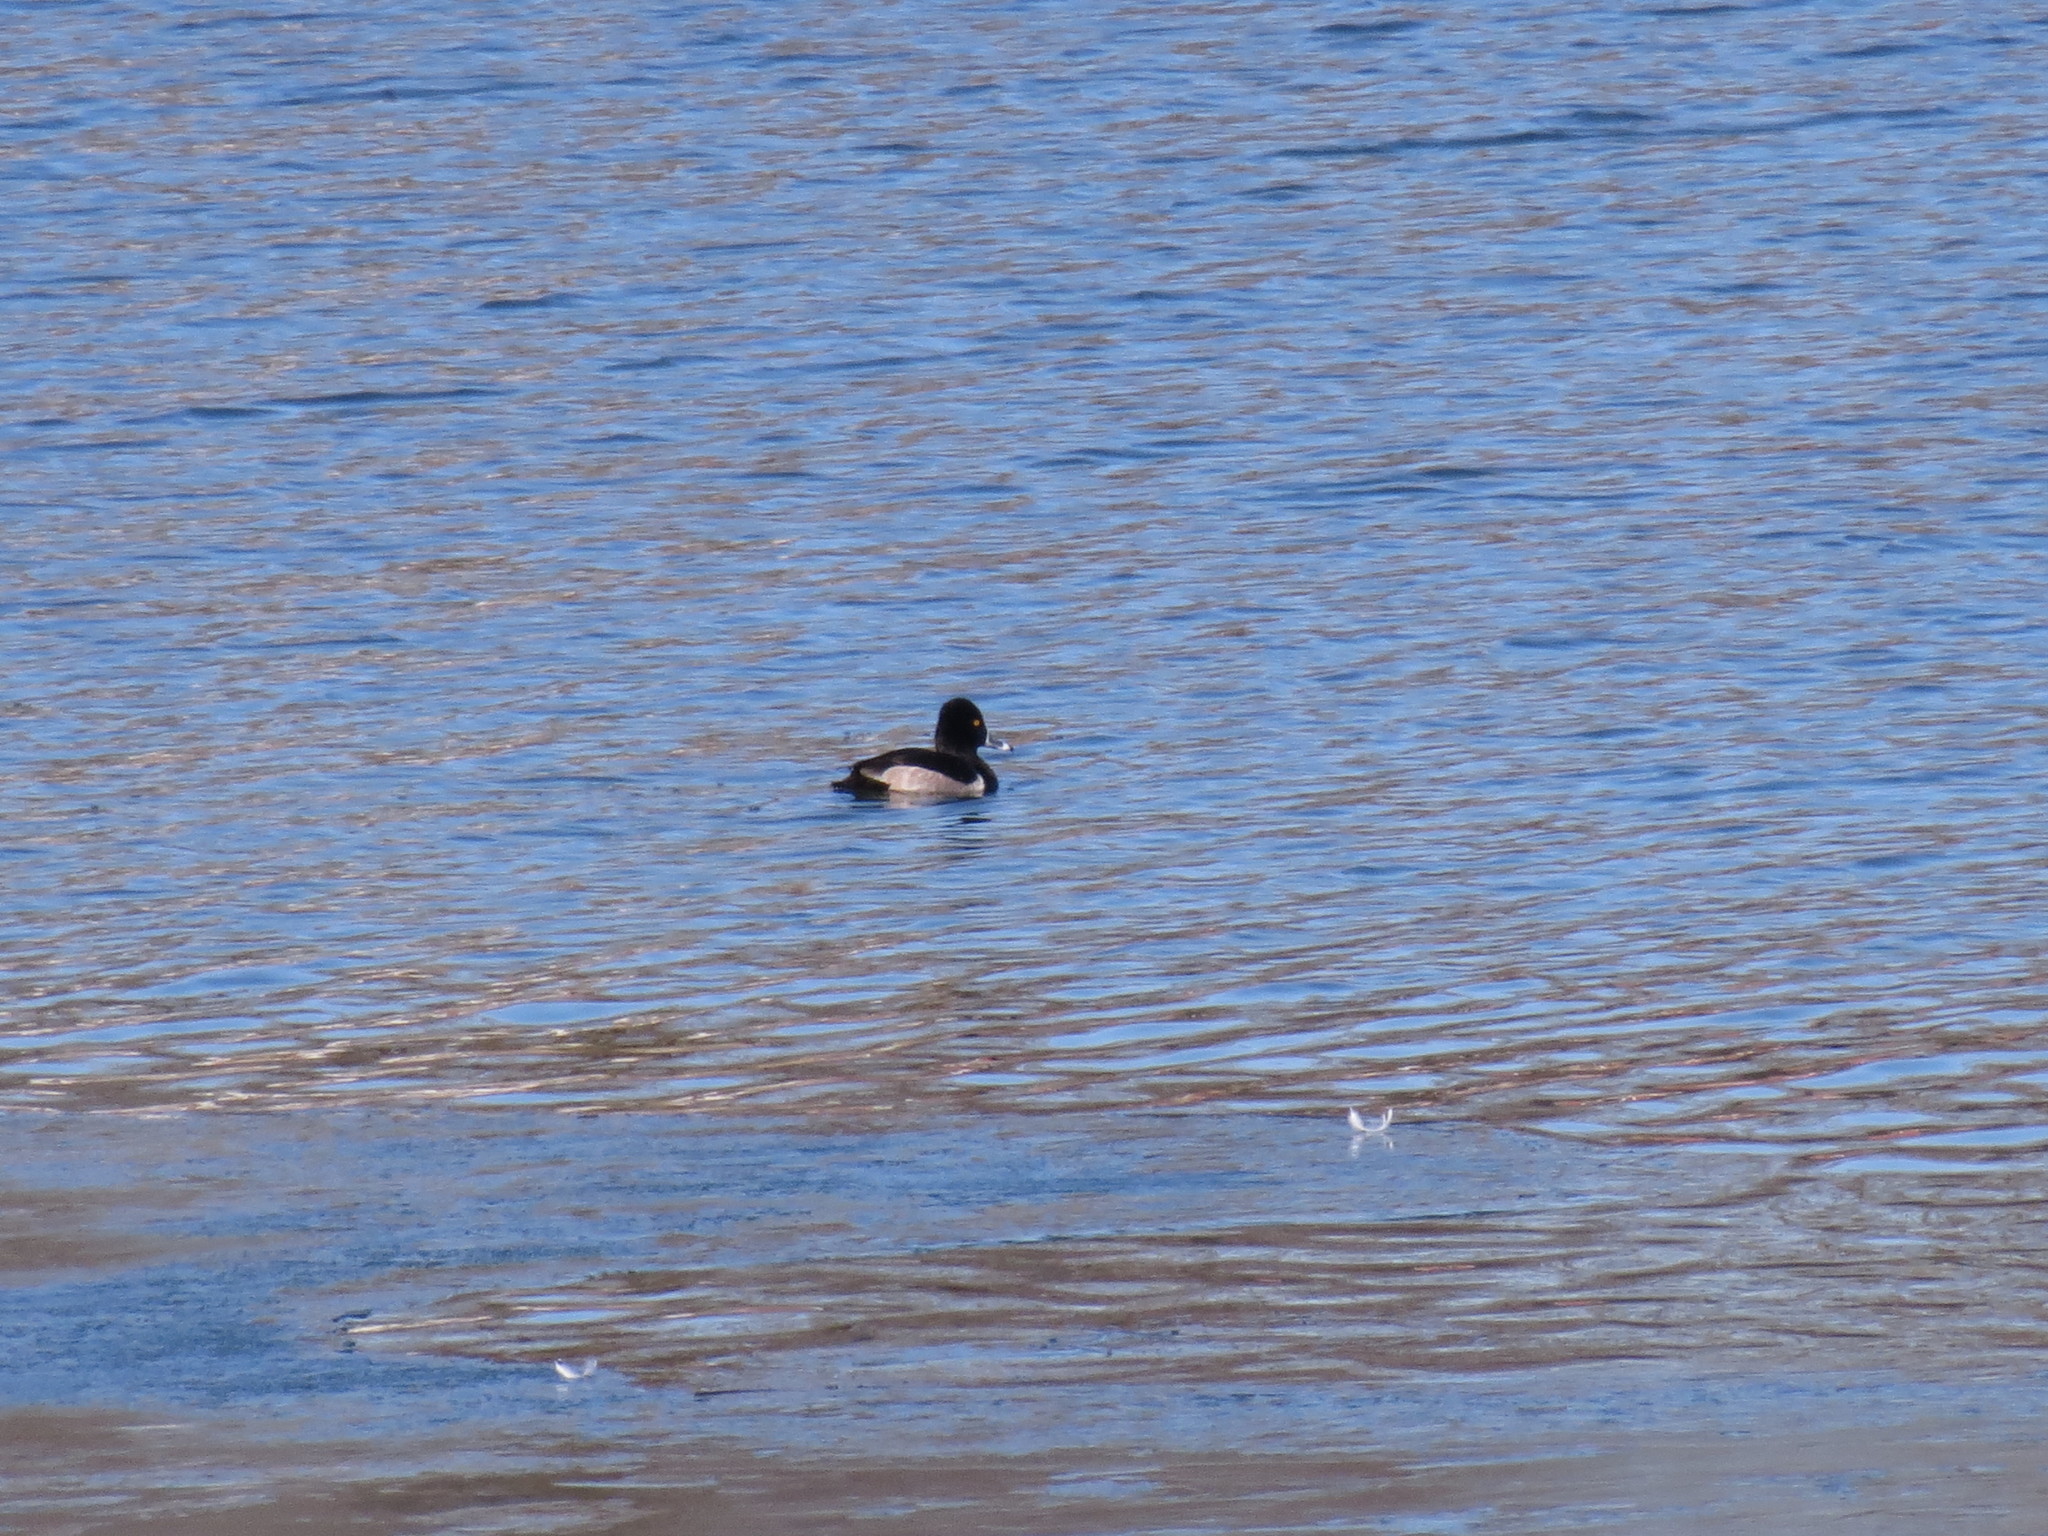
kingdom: Animalia
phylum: Chordata
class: Aves
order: Anseriformes
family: Anatidae
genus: Aythya
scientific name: Aythya collaris
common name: Ring-necked duck
